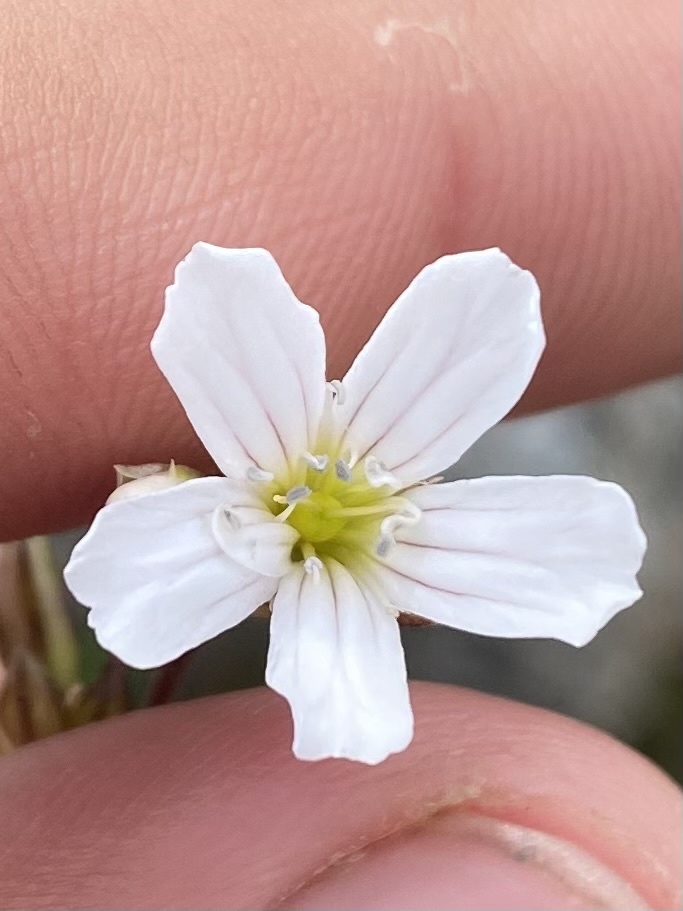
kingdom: Plantae
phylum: Tracheophyta
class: Magnoliopsida
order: Caryophyllales
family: Caryophyllaceae
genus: Gypsophila
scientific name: Gypsophila tenuifolia
